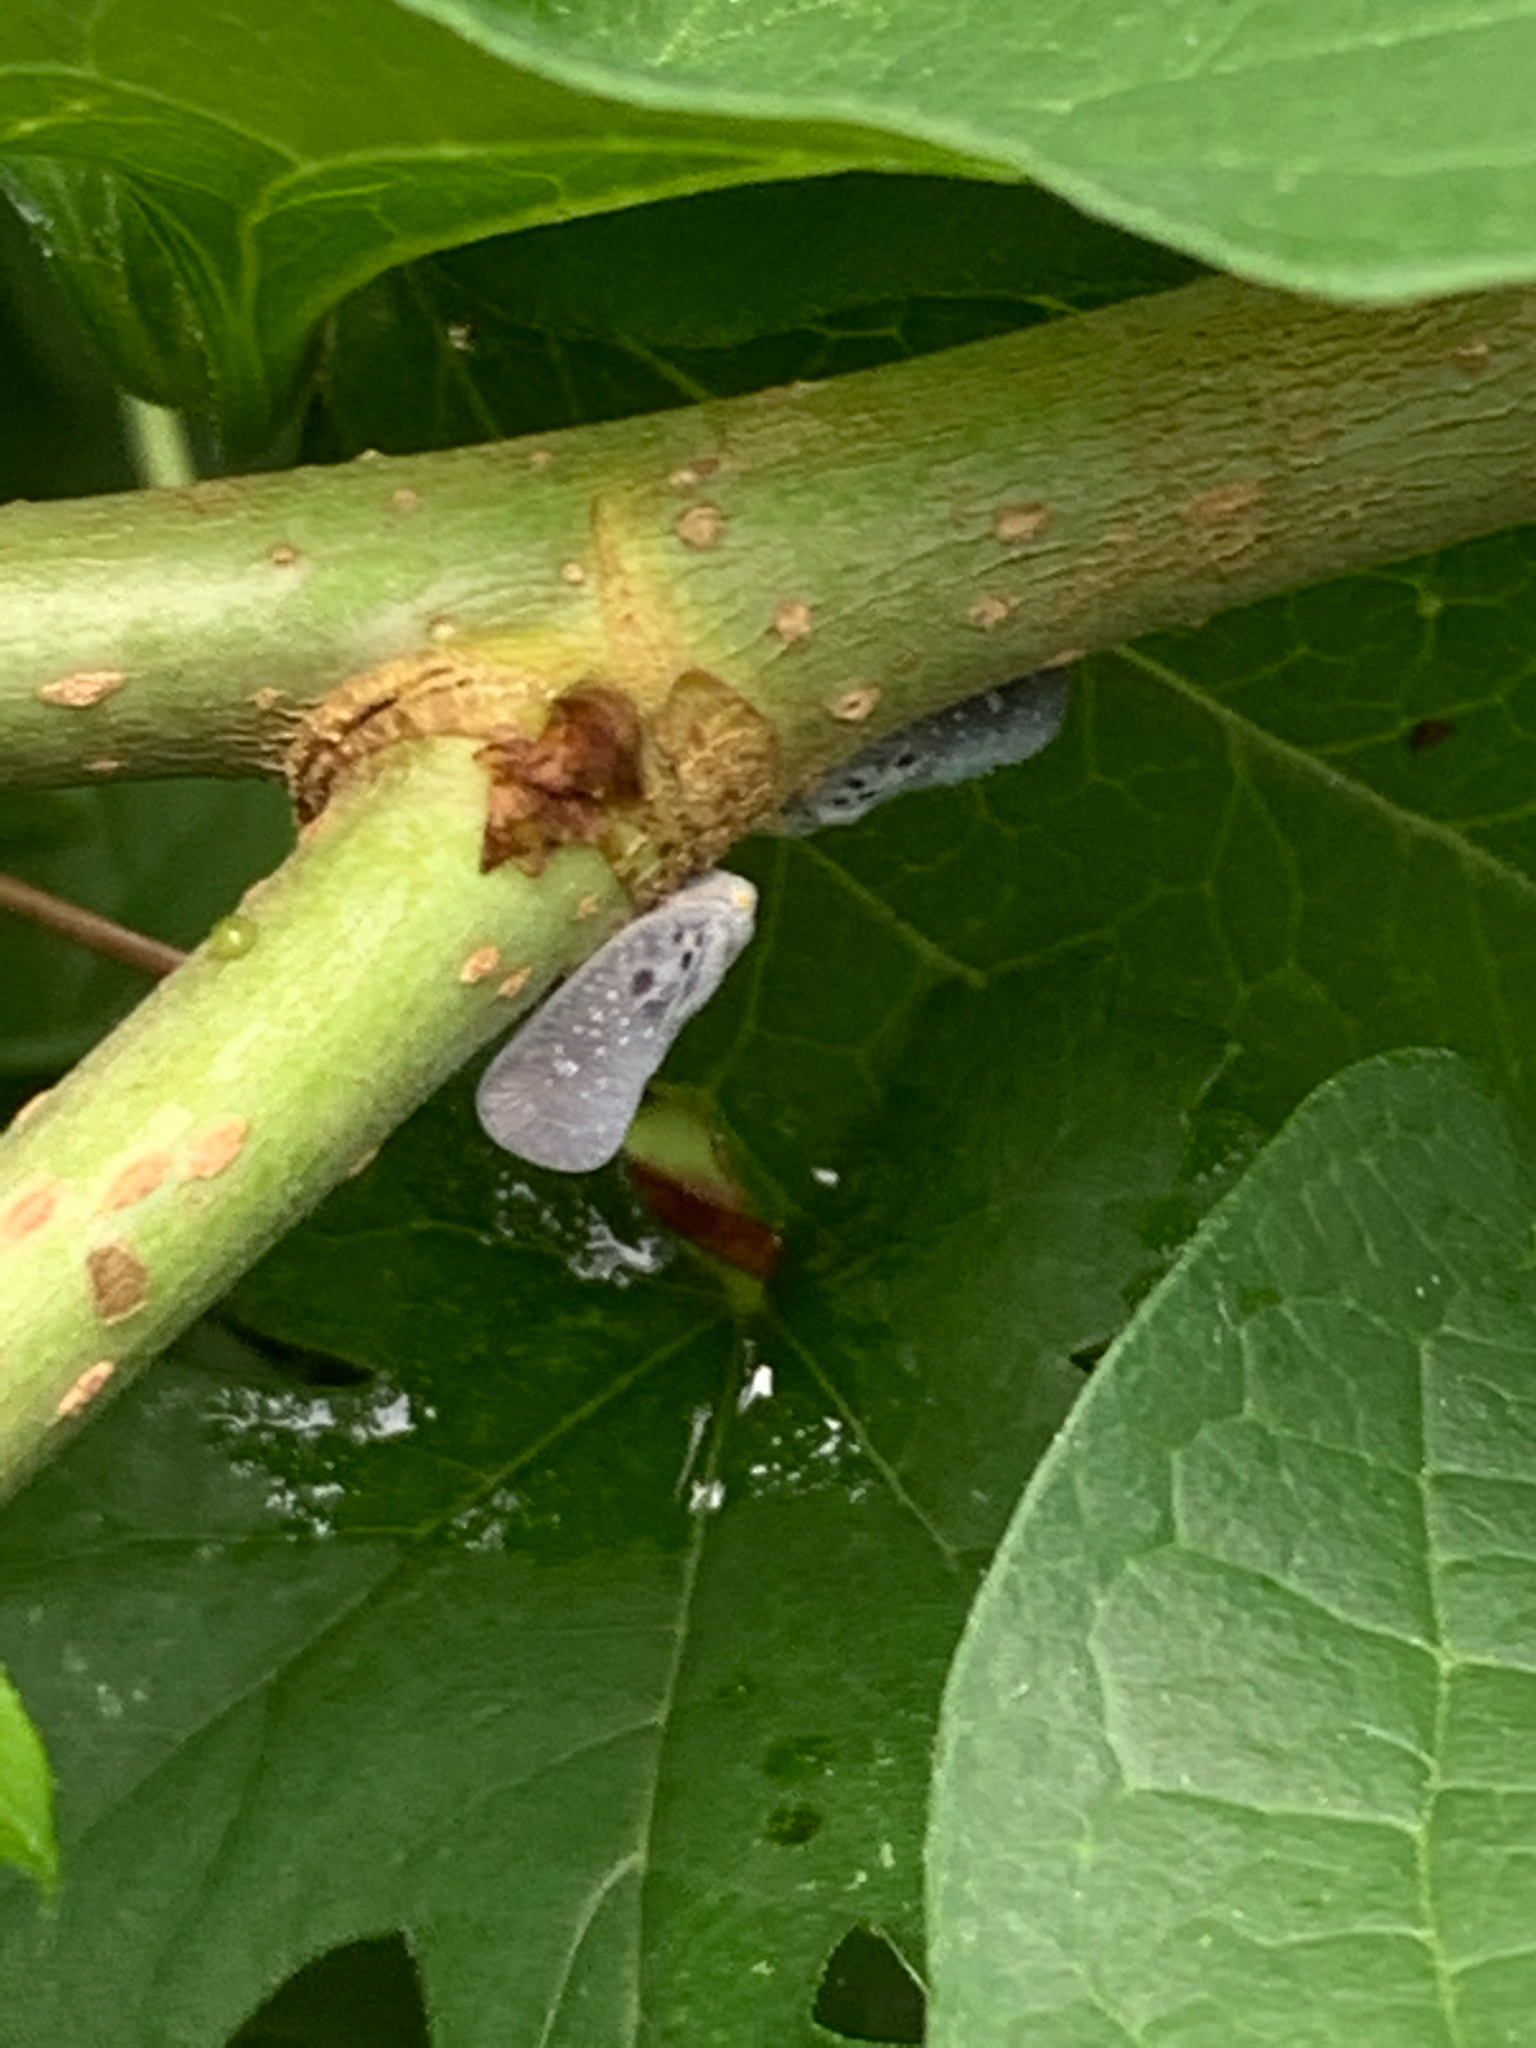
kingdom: Animalia
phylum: Arthropoda
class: Insecta
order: Hemiptera
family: Flatidae
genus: Metcalfa
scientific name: Metcalfa pruinosa
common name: Citrus flatid planthopper
